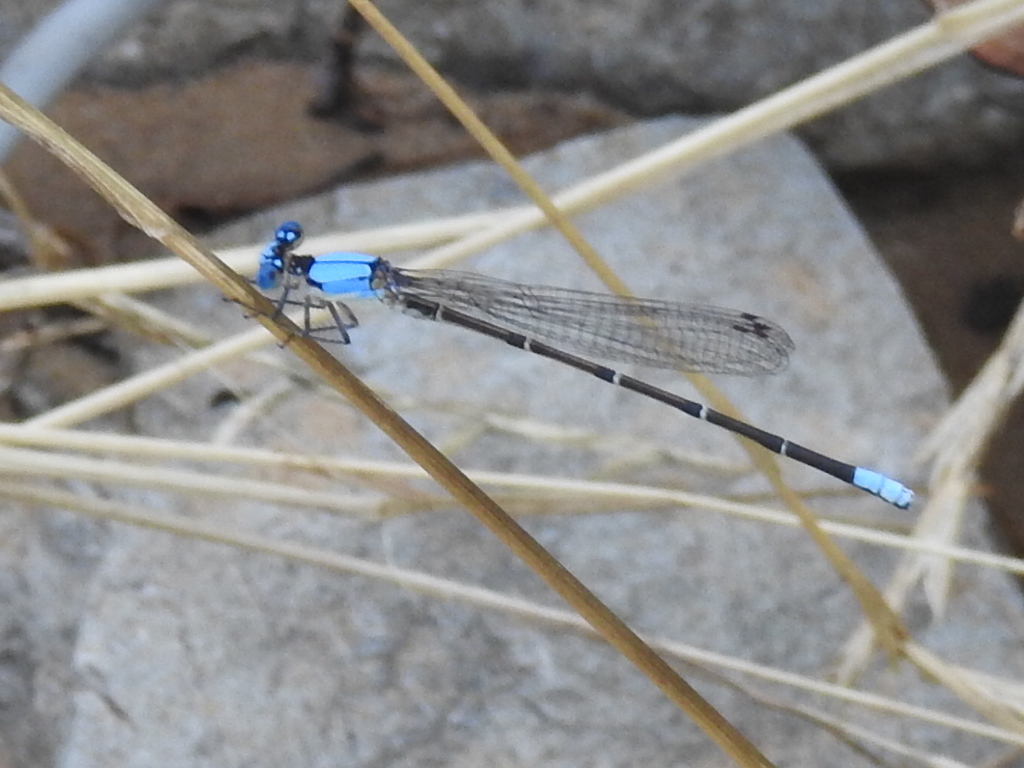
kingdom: Animalia
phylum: Arthropoda
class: Insecta
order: Odonata
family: Coenagrionidae
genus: Argia
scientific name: Argia apicalis
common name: Blue-fronted dancer
